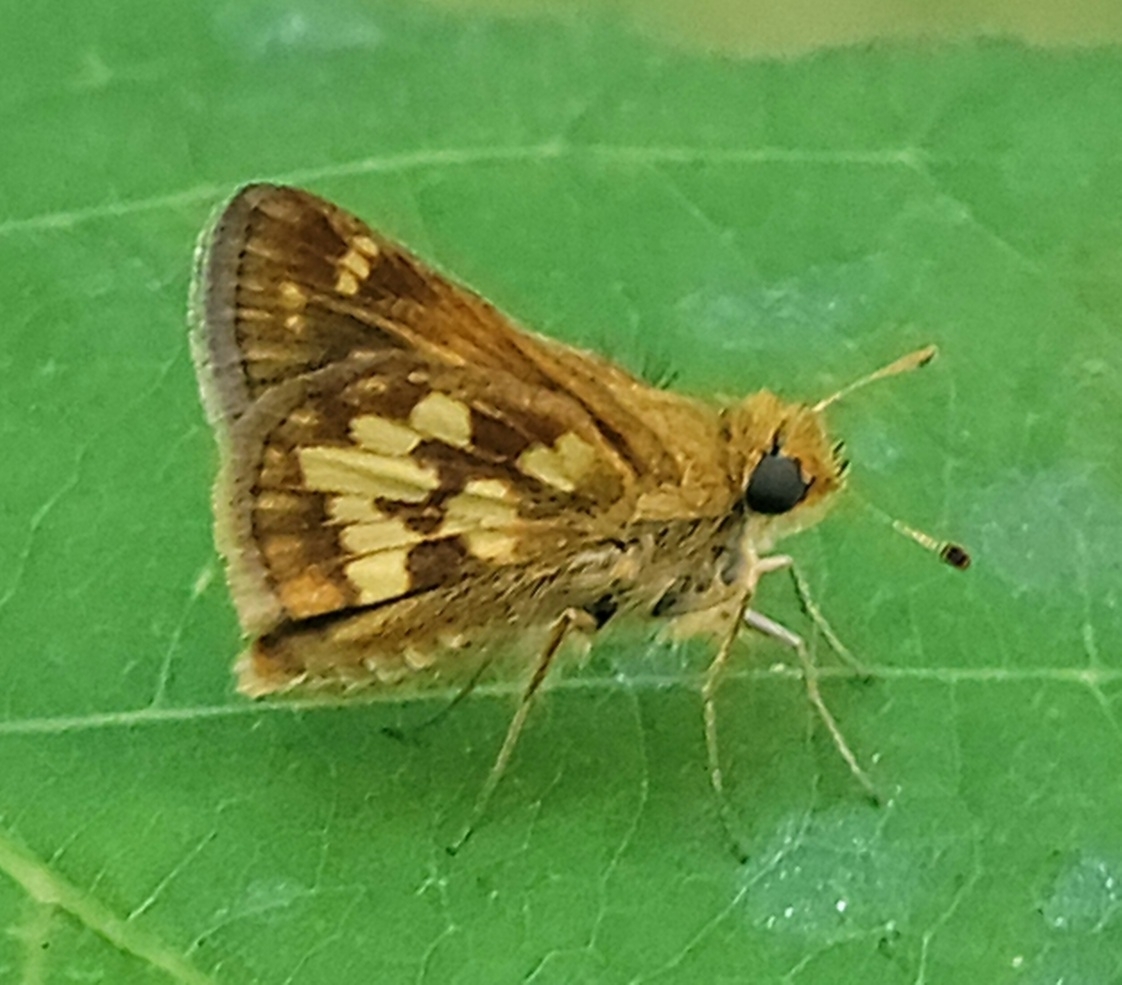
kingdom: Animalia
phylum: Arthropoda
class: Insecta
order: Lepidoptera
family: Hesperiidae
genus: Polites
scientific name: Polites coras
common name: Peck's skipper
